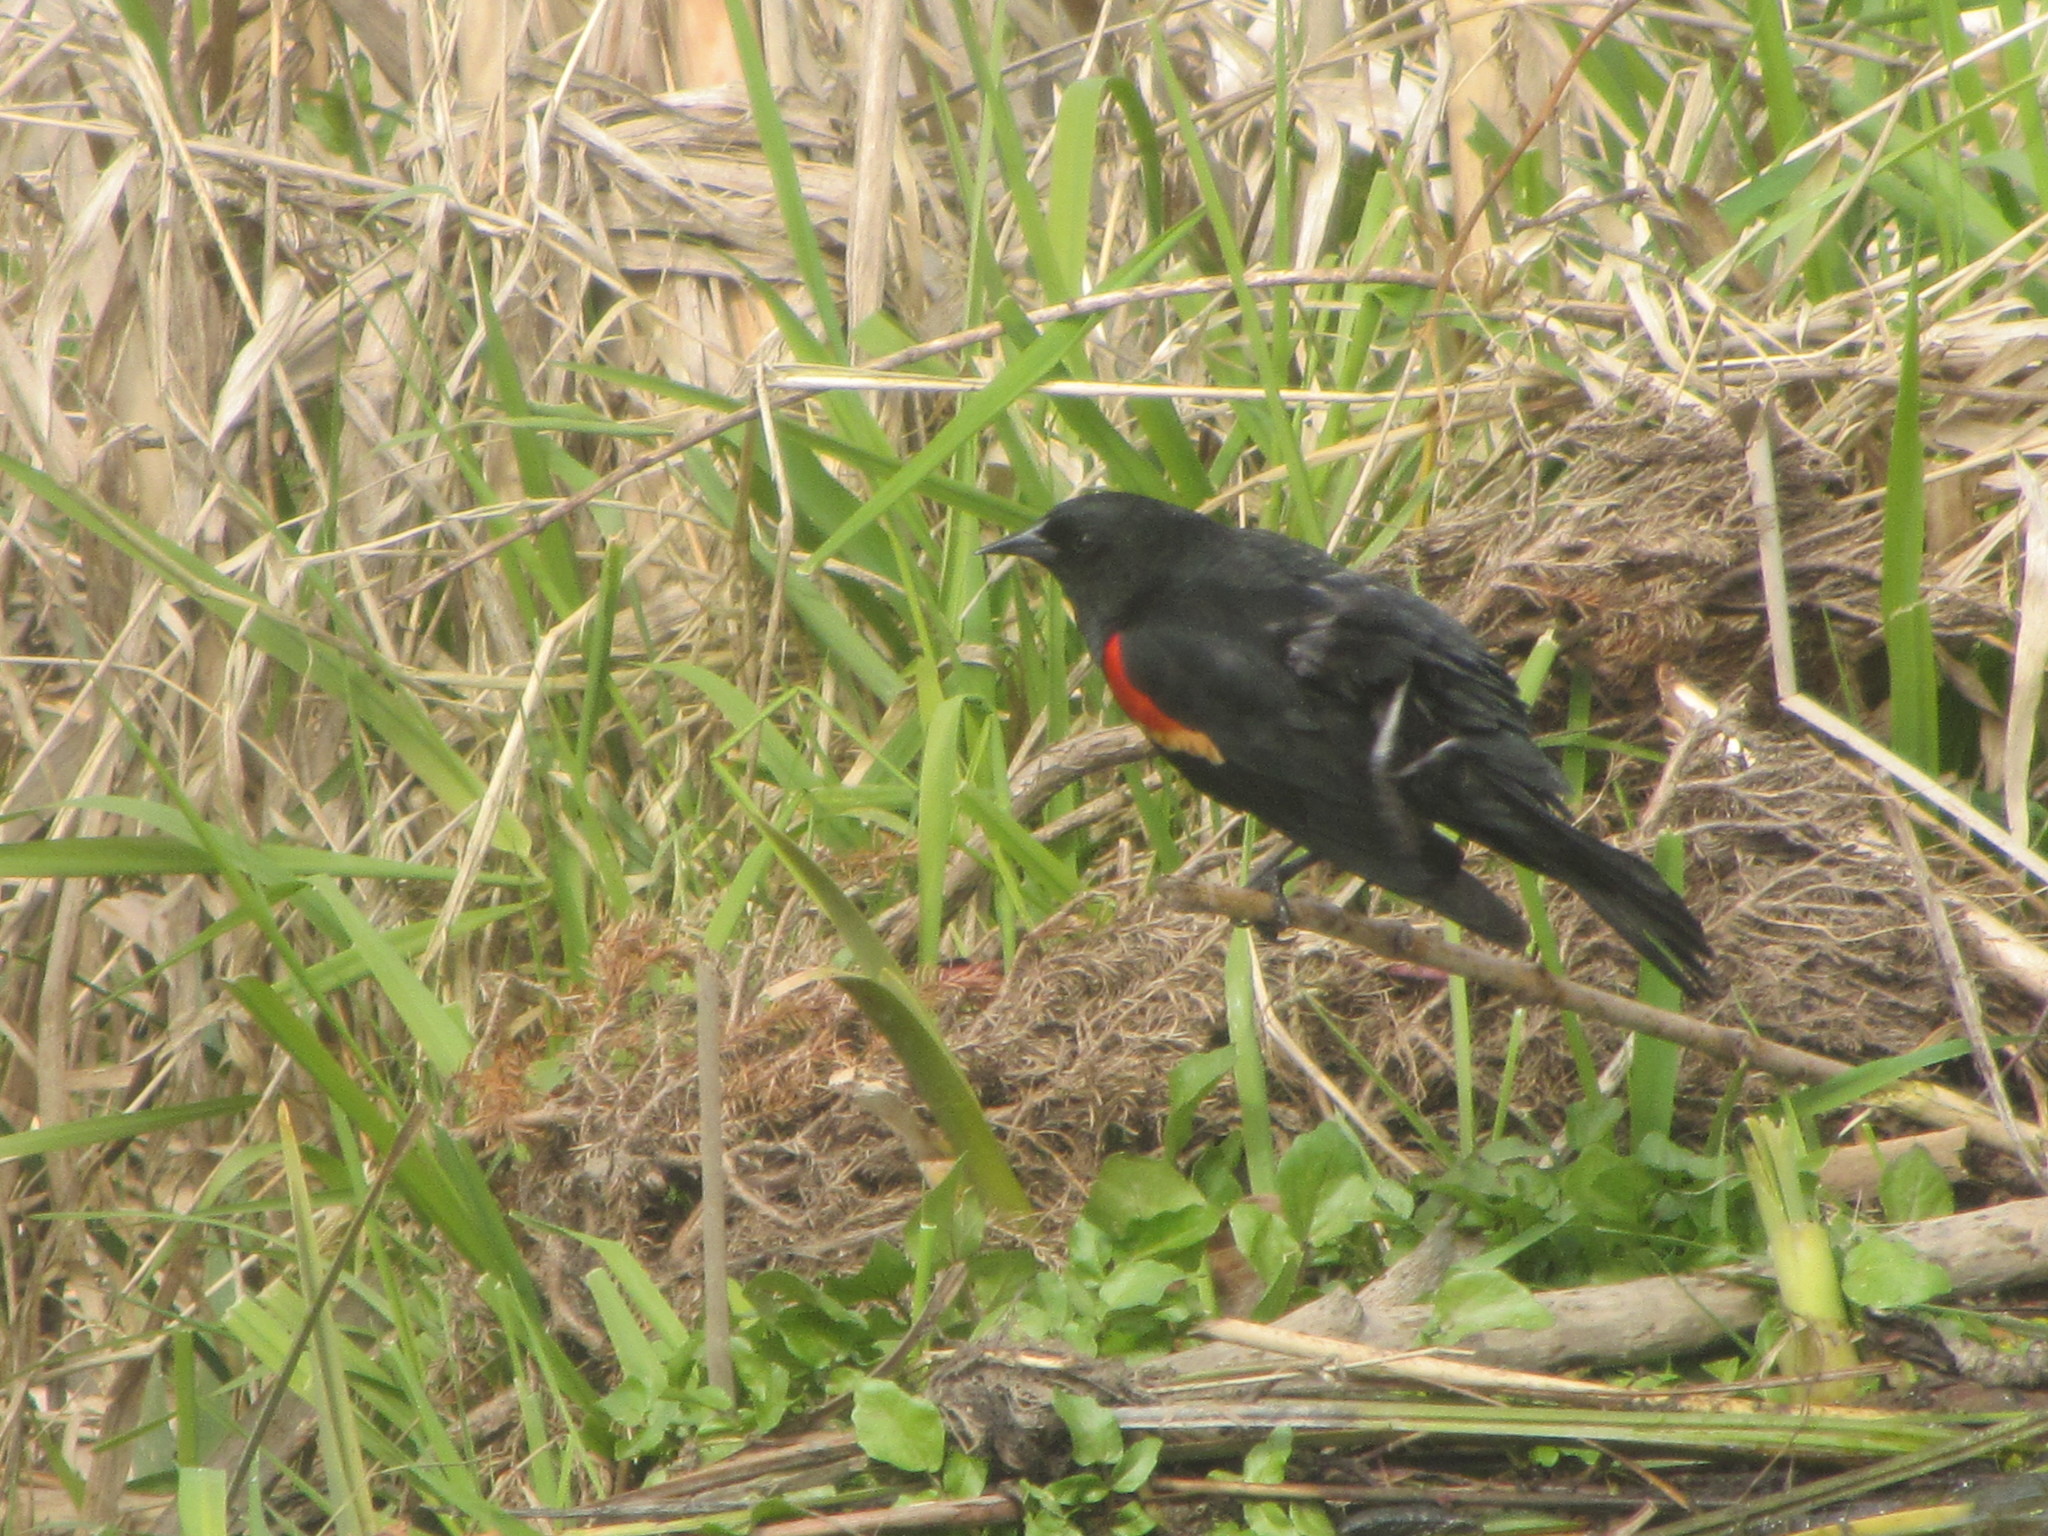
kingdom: Animalia
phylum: Chordata
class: Aves
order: Passeriformes
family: Icteridae
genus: Agelaius
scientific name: Agelaius phoeniceus
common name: Red-winged blackbird
